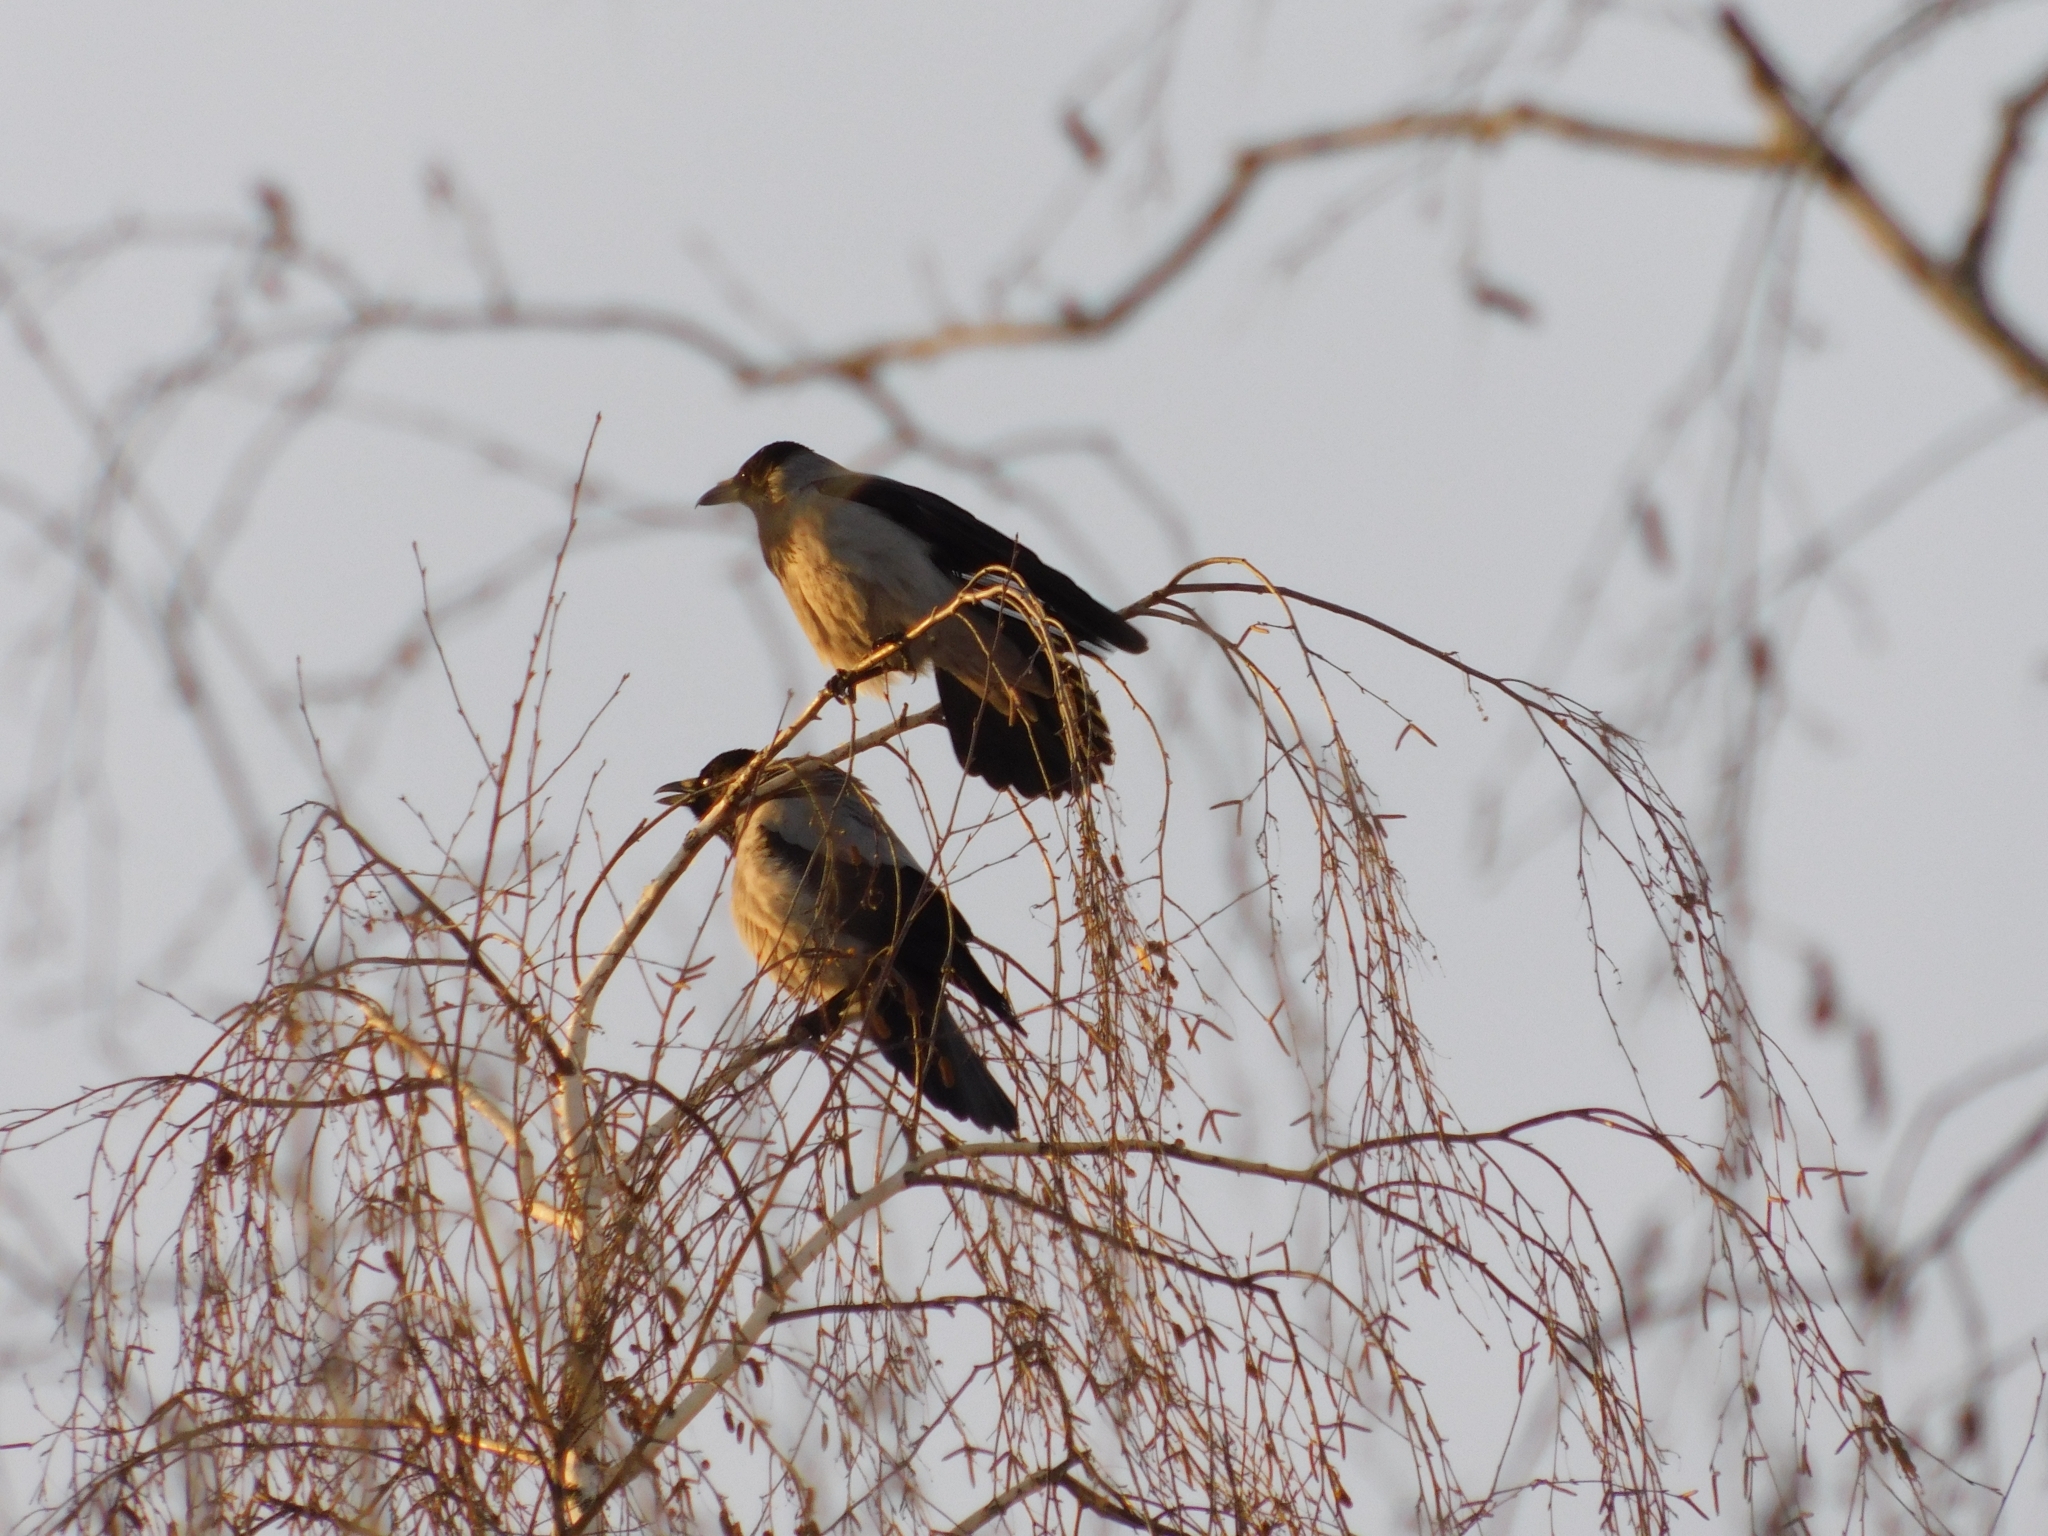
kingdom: Animalia
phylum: Chordata
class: Aves
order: Passeriformes
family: Corvidae
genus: Corvus
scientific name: Corvus cornix
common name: Hooded crow
